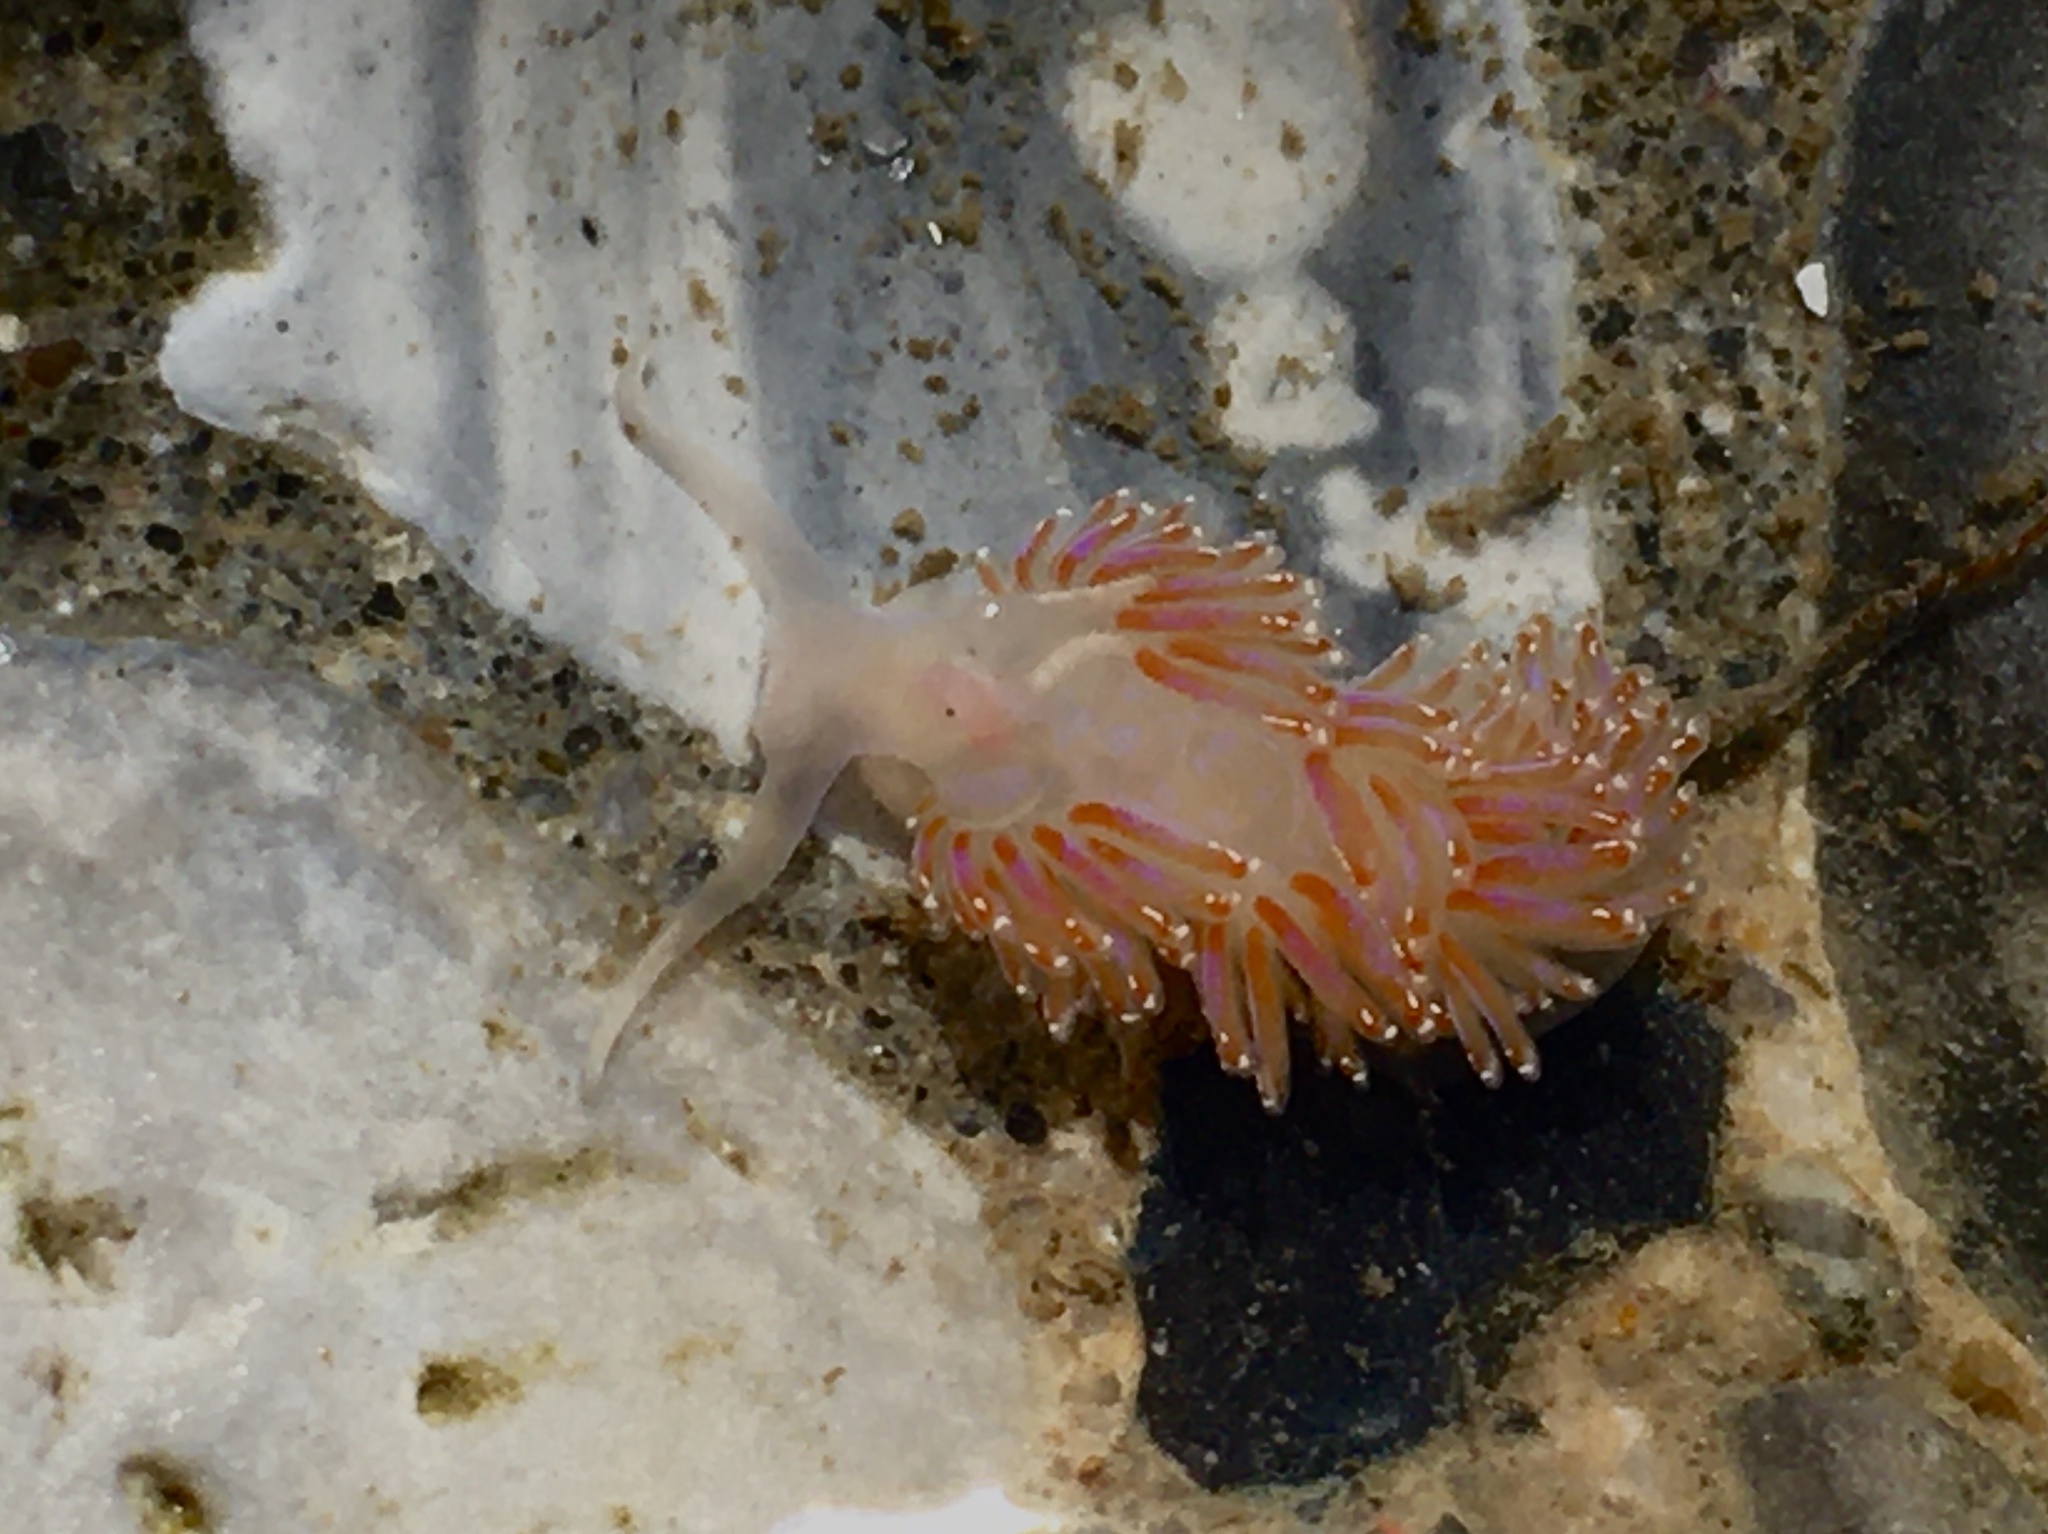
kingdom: Animalia
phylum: Mollusca
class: Gastropoda
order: Nudibranchia
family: Facelinidae
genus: Facelina
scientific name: Facelina auriculata
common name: Slender facelina
